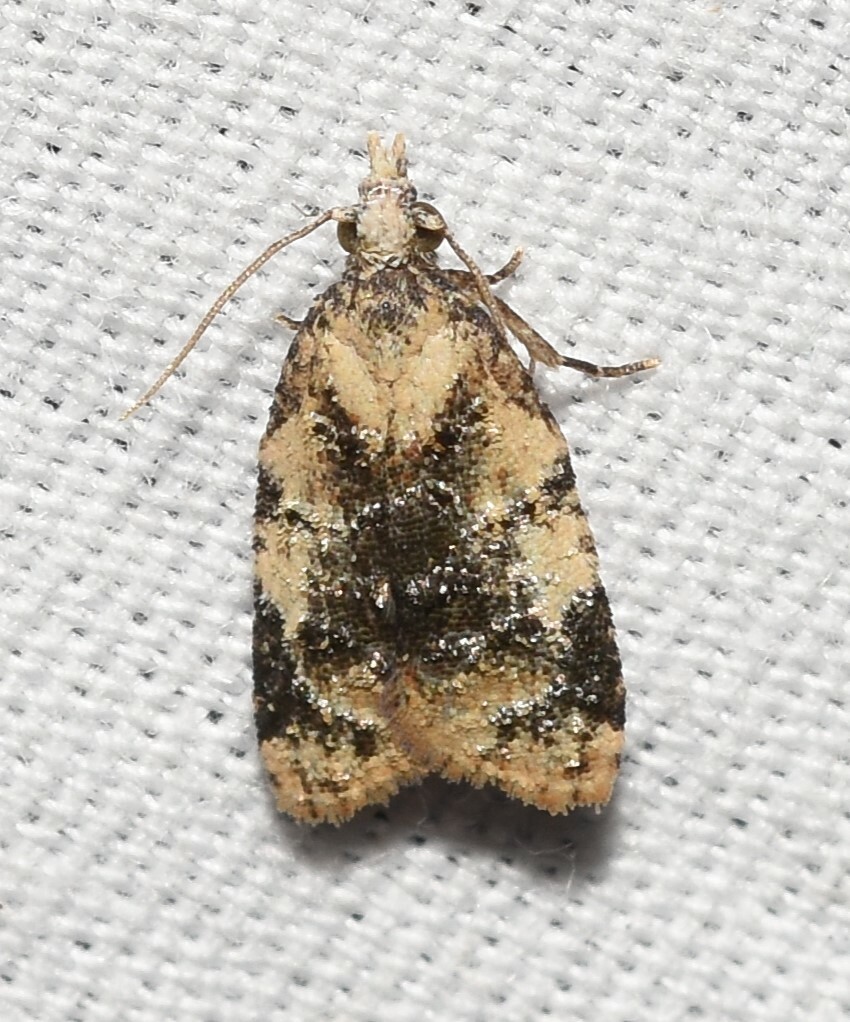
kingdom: Animalia
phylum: Arthropoda
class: Insecta
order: Lepidoptera
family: Tortricidae
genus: Platynota
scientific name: Platynota exasperatana
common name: Exasperating platynota moth
